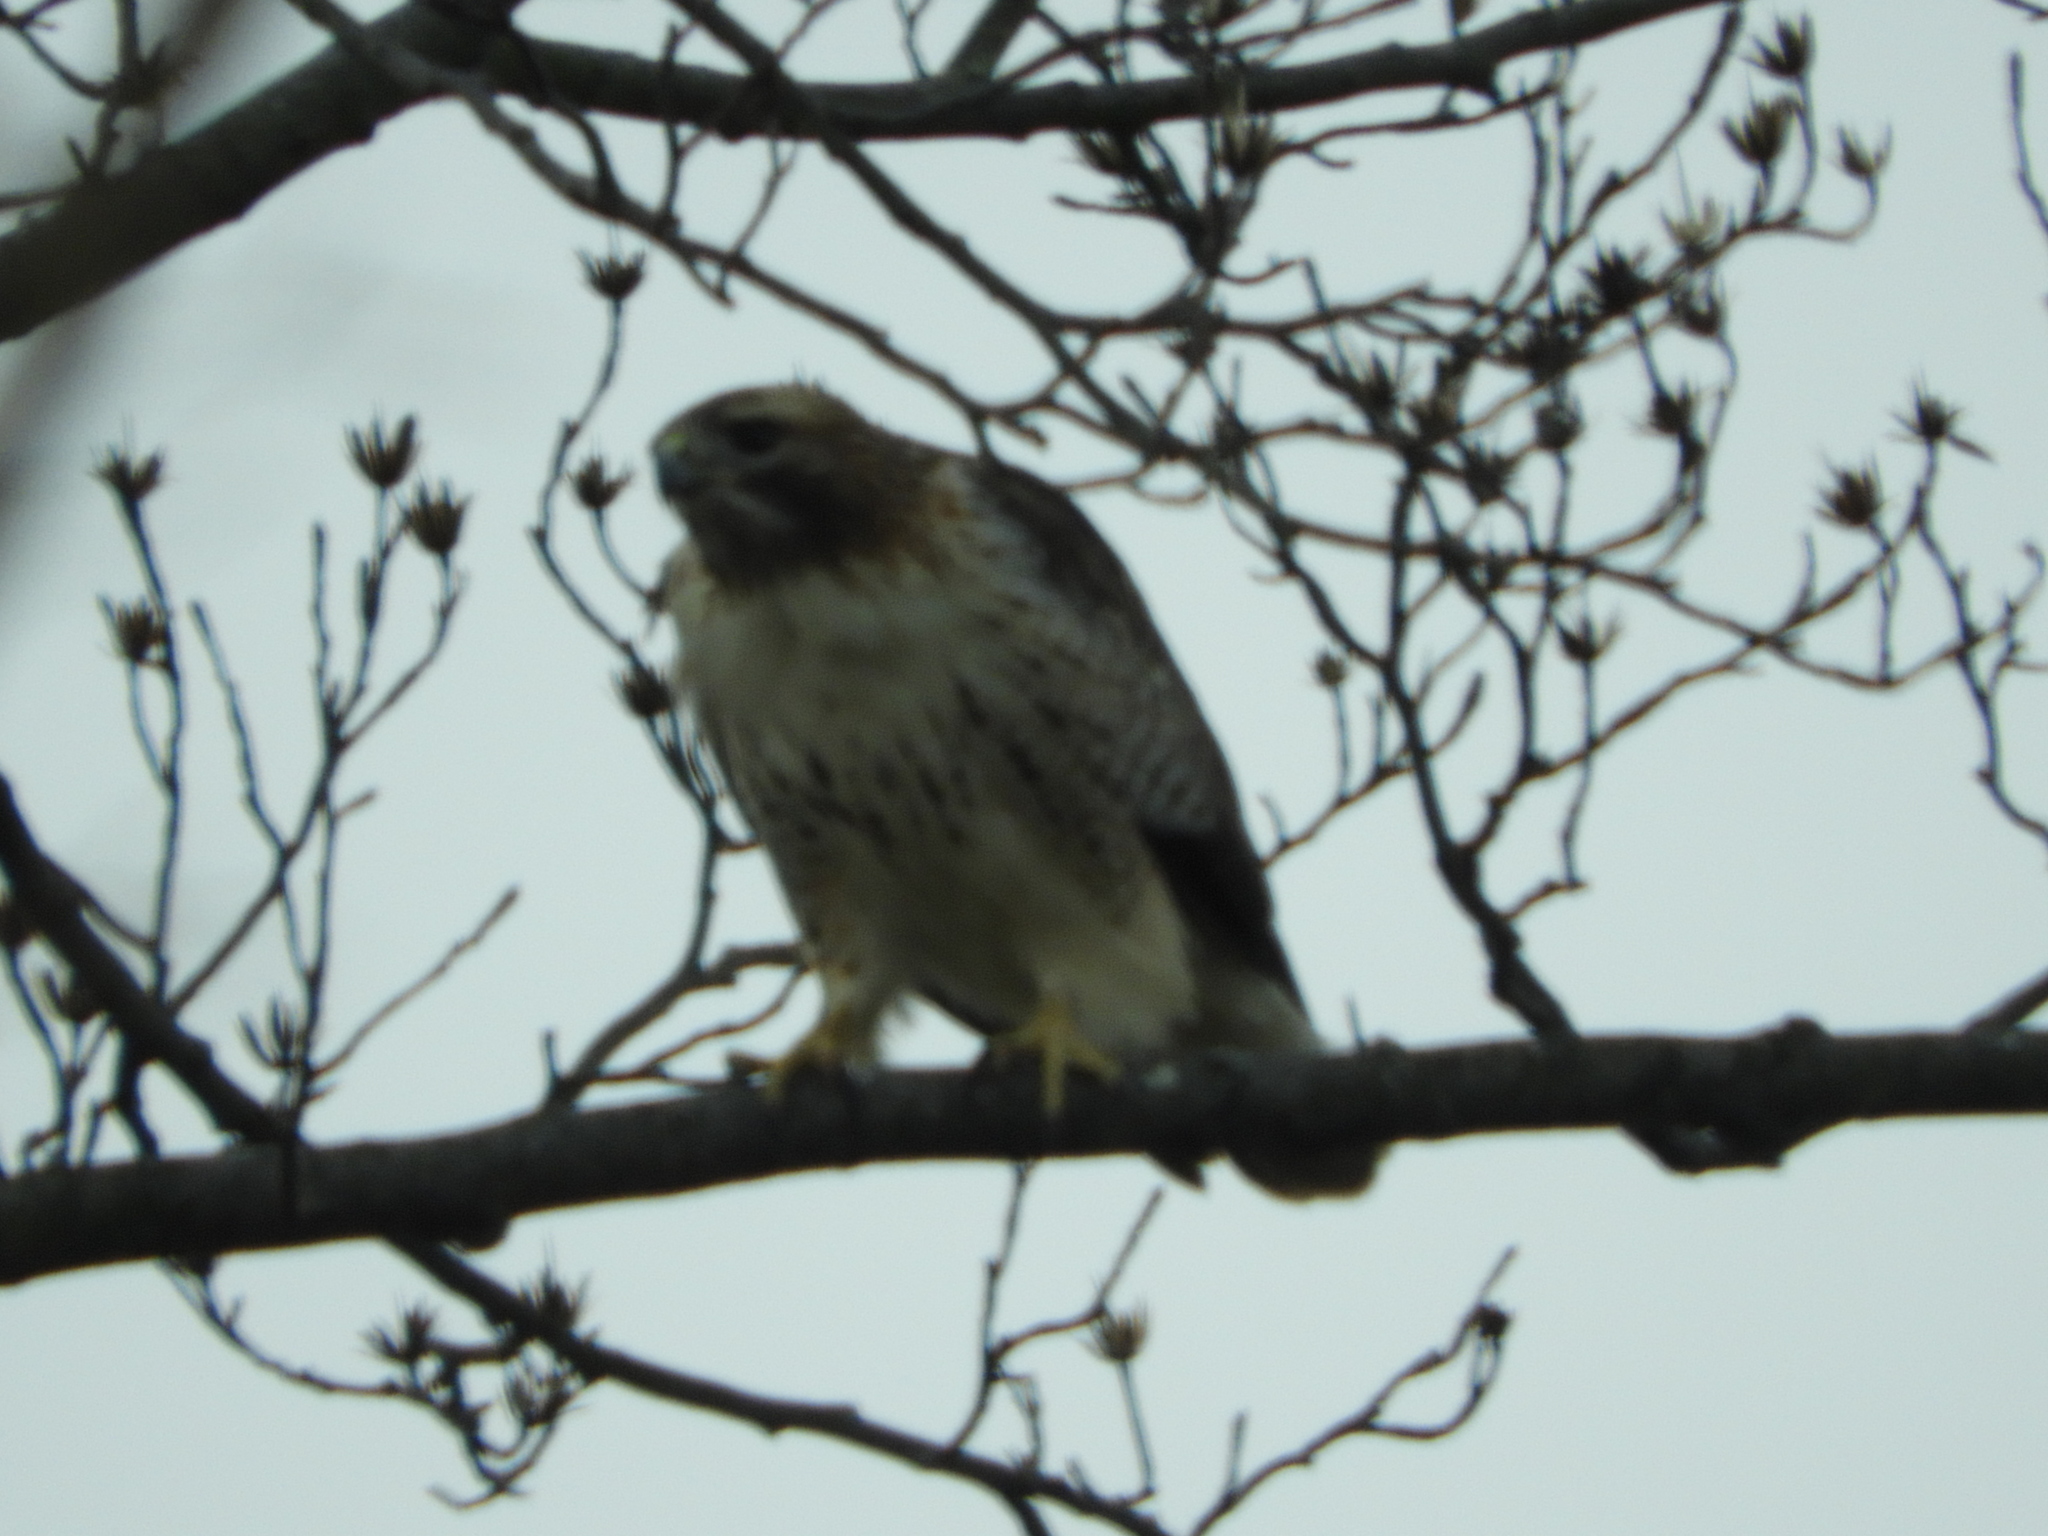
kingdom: Animalia
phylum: Chordata
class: Aves
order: Accipitriformes
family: Accipitridae
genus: Buteo
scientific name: Buteo jamaicensis
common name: Red-tailed hawk
